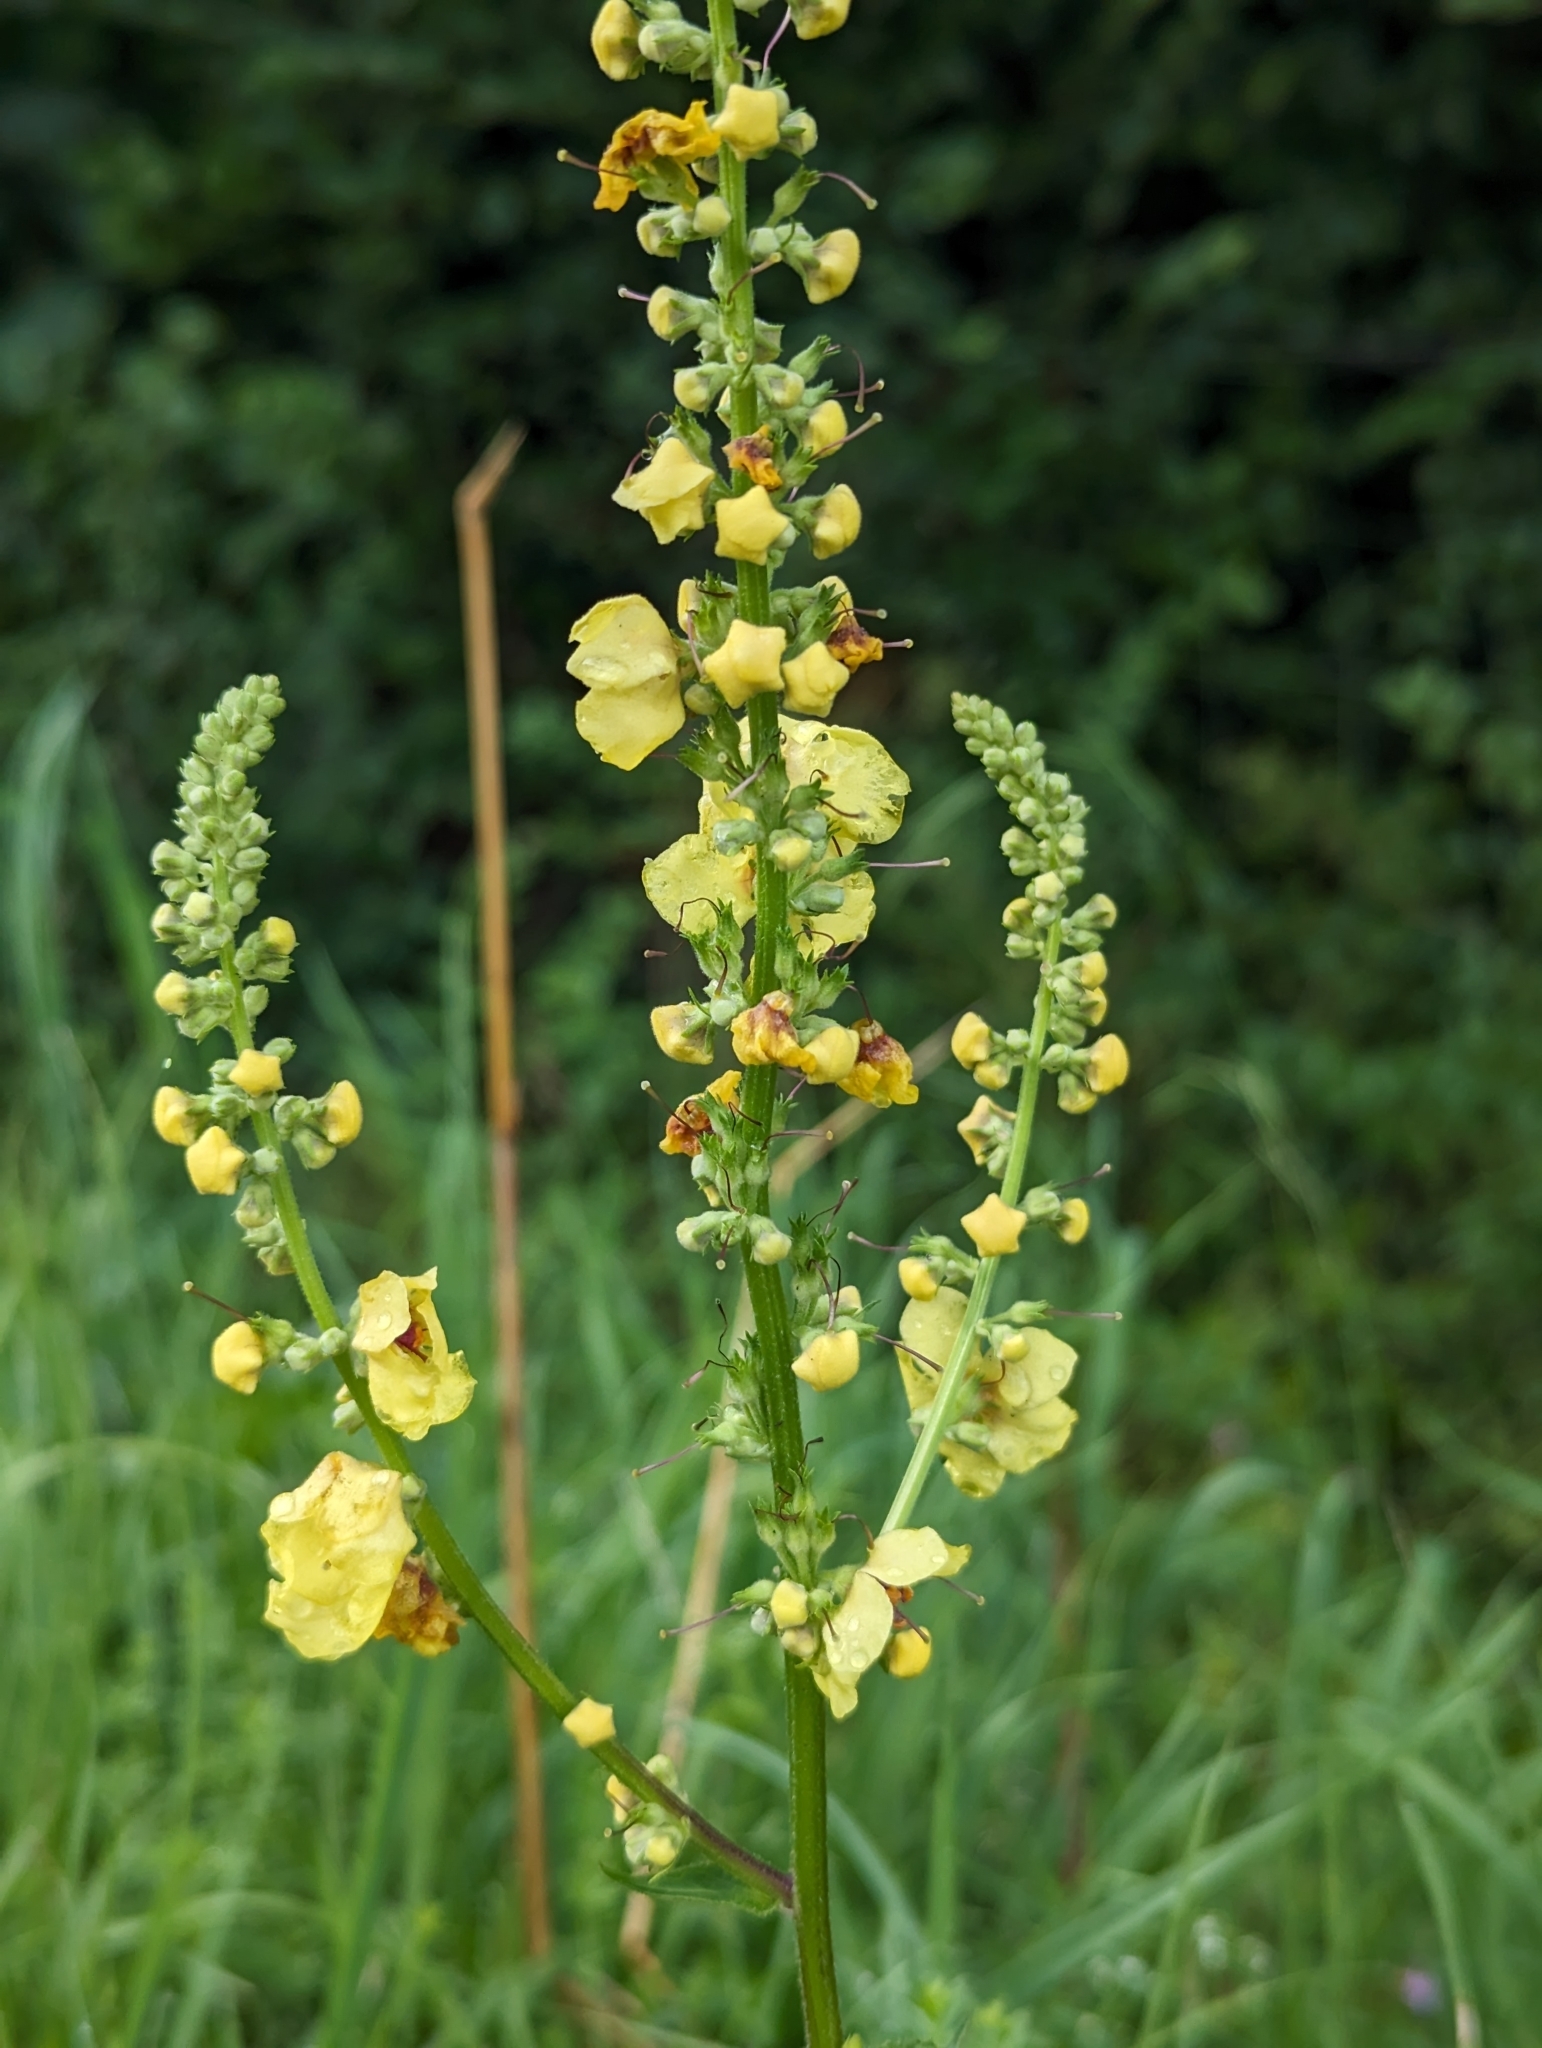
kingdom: Plantae
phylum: Tracheophyta
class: Magnoliopsida
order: Lamiales
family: Scrophulariaceae
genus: Verbascum
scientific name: Verbascum nigrum
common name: Dark mullein
